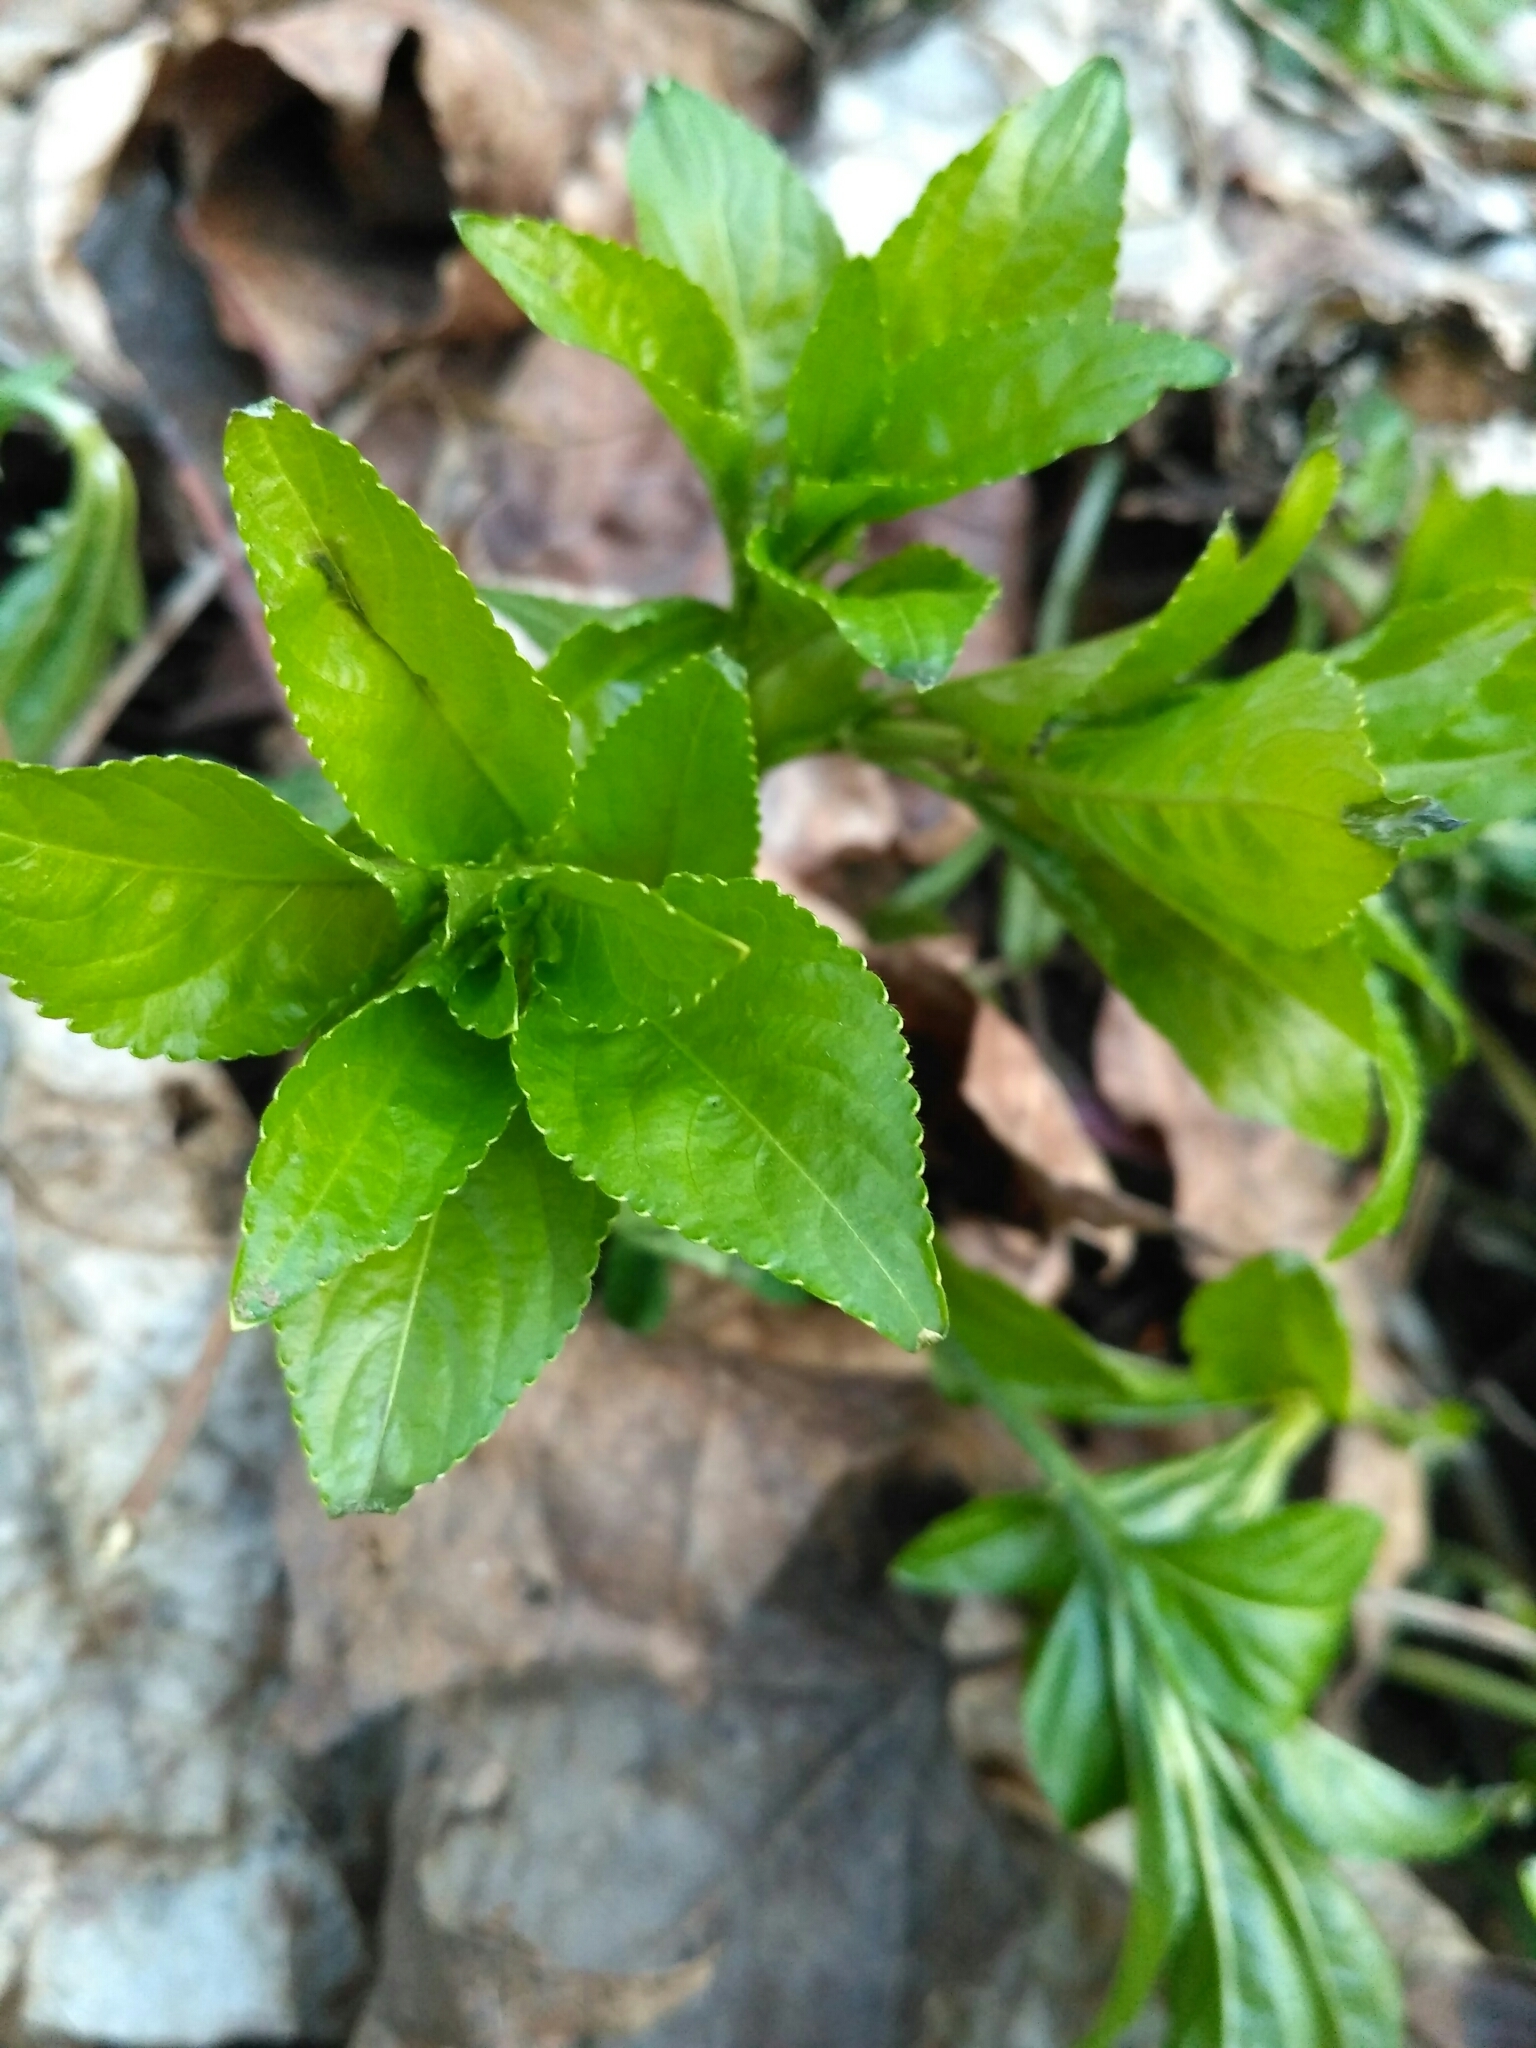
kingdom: Plantae
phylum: Tracheophyta
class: Magnoliopsida
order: Malpighiales
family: Euphorbiaceae
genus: Mercurialis
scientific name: Mercurialis perennis
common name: Dog mercury
